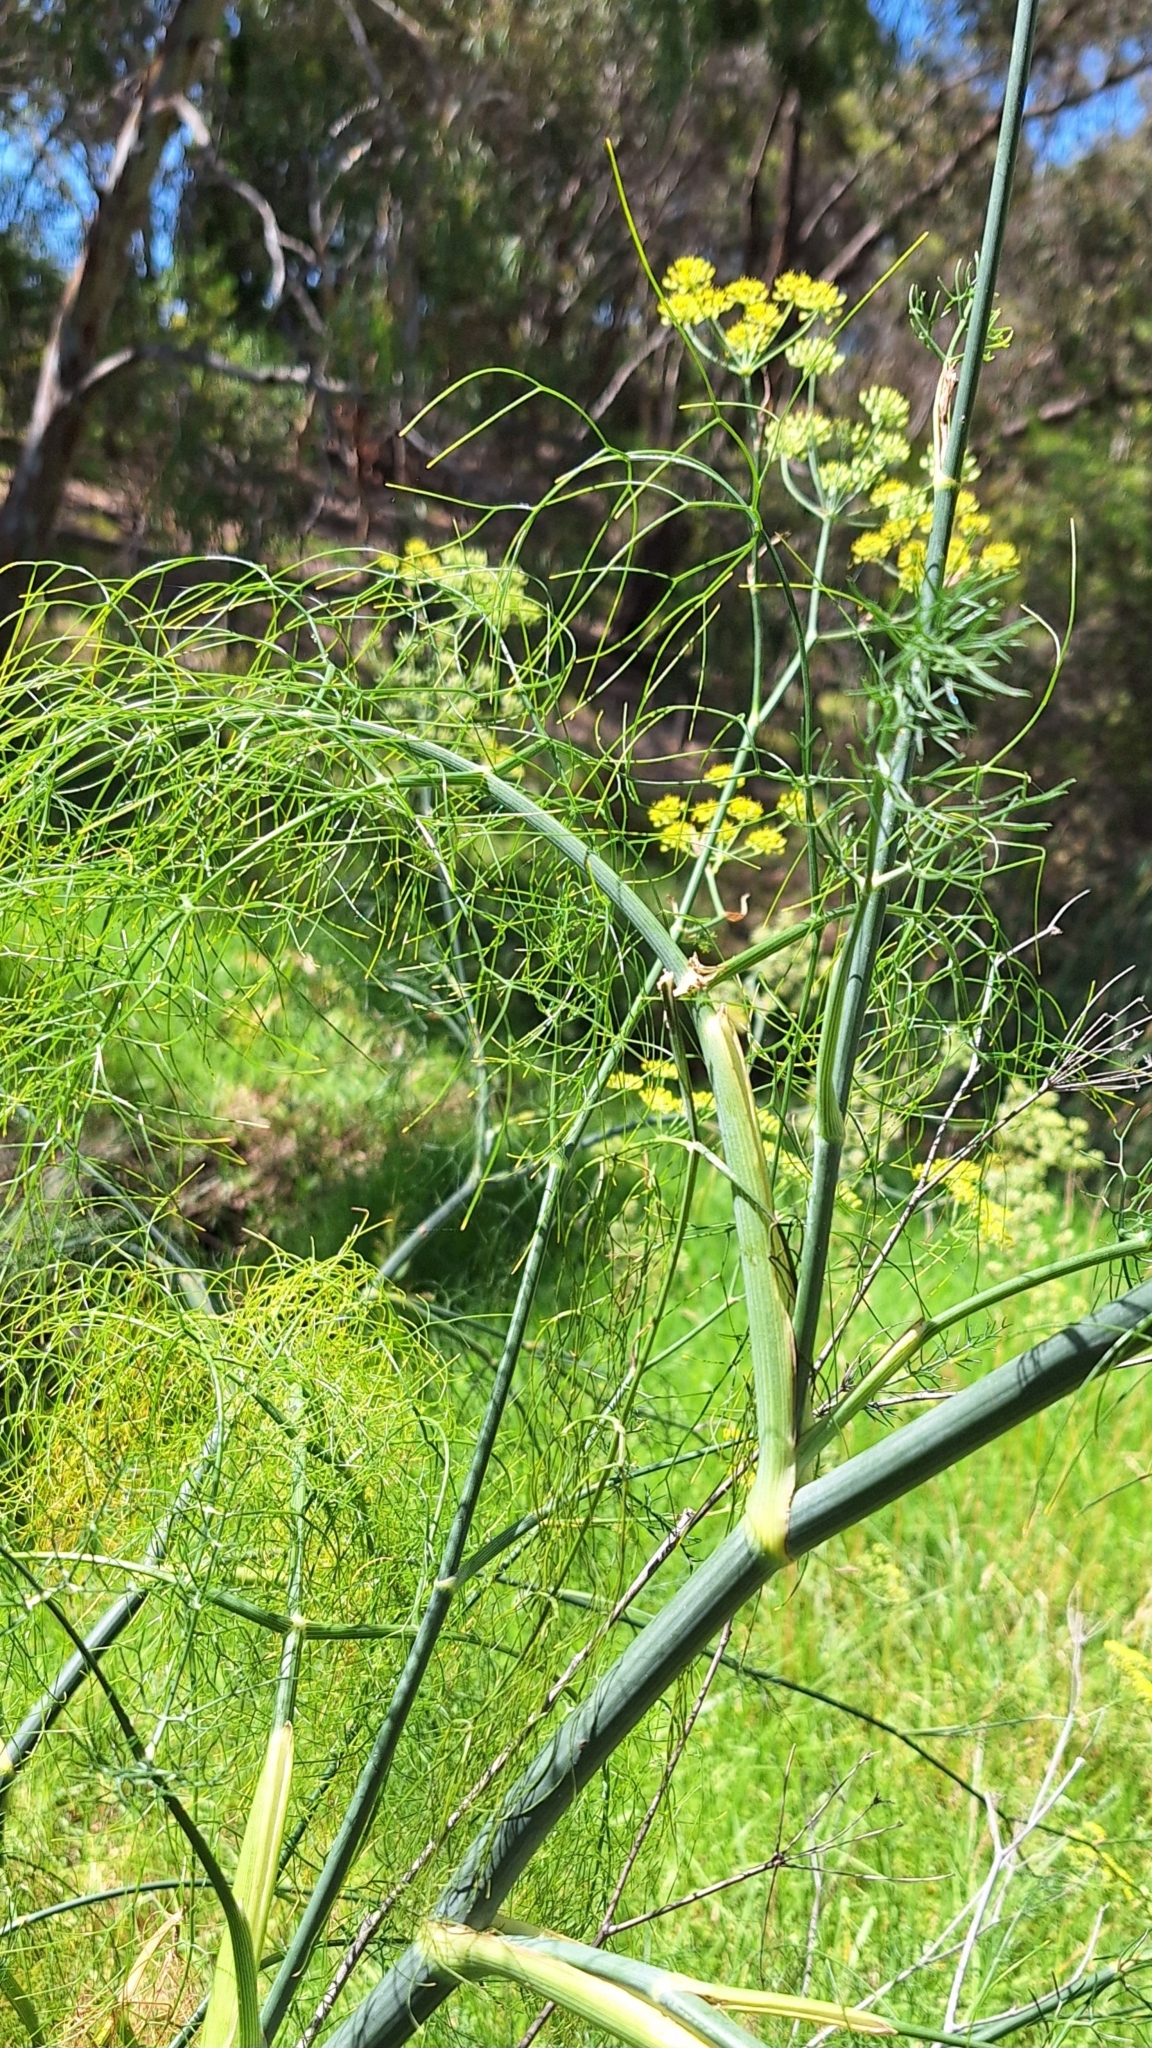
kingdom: Plantae
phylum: Tracheophyta
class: Magnoliopsida
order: Apiales
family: Apiaceae
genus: Foeniculum
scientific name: Foeniculum vulgare
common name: Fennel
